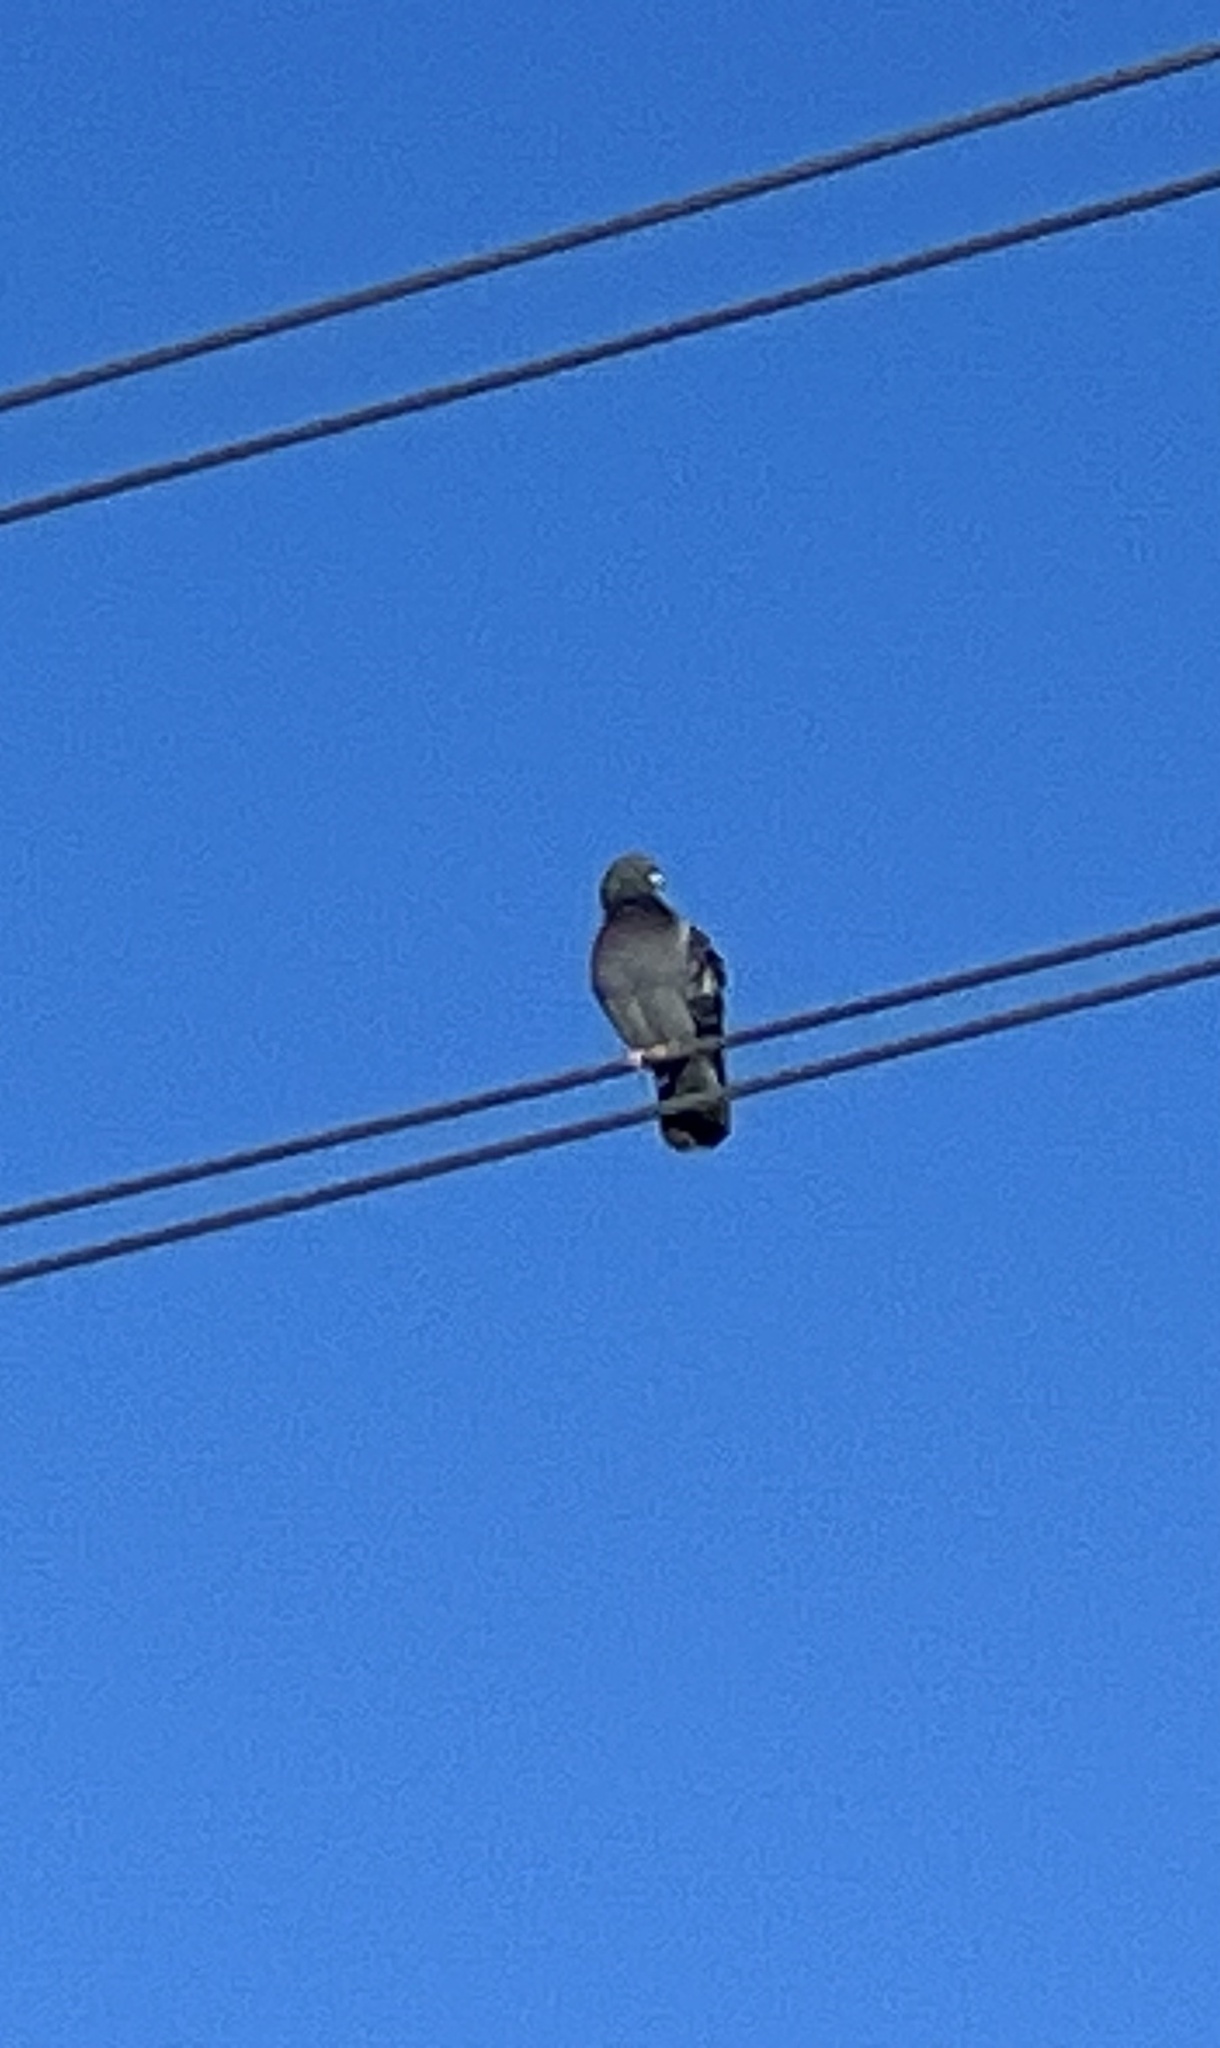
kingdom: Animalia
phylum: Chordata
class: Aves
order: Columbiformes
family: Columbidae
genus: Columba
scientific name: Columba livia
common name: Rock pigeon
